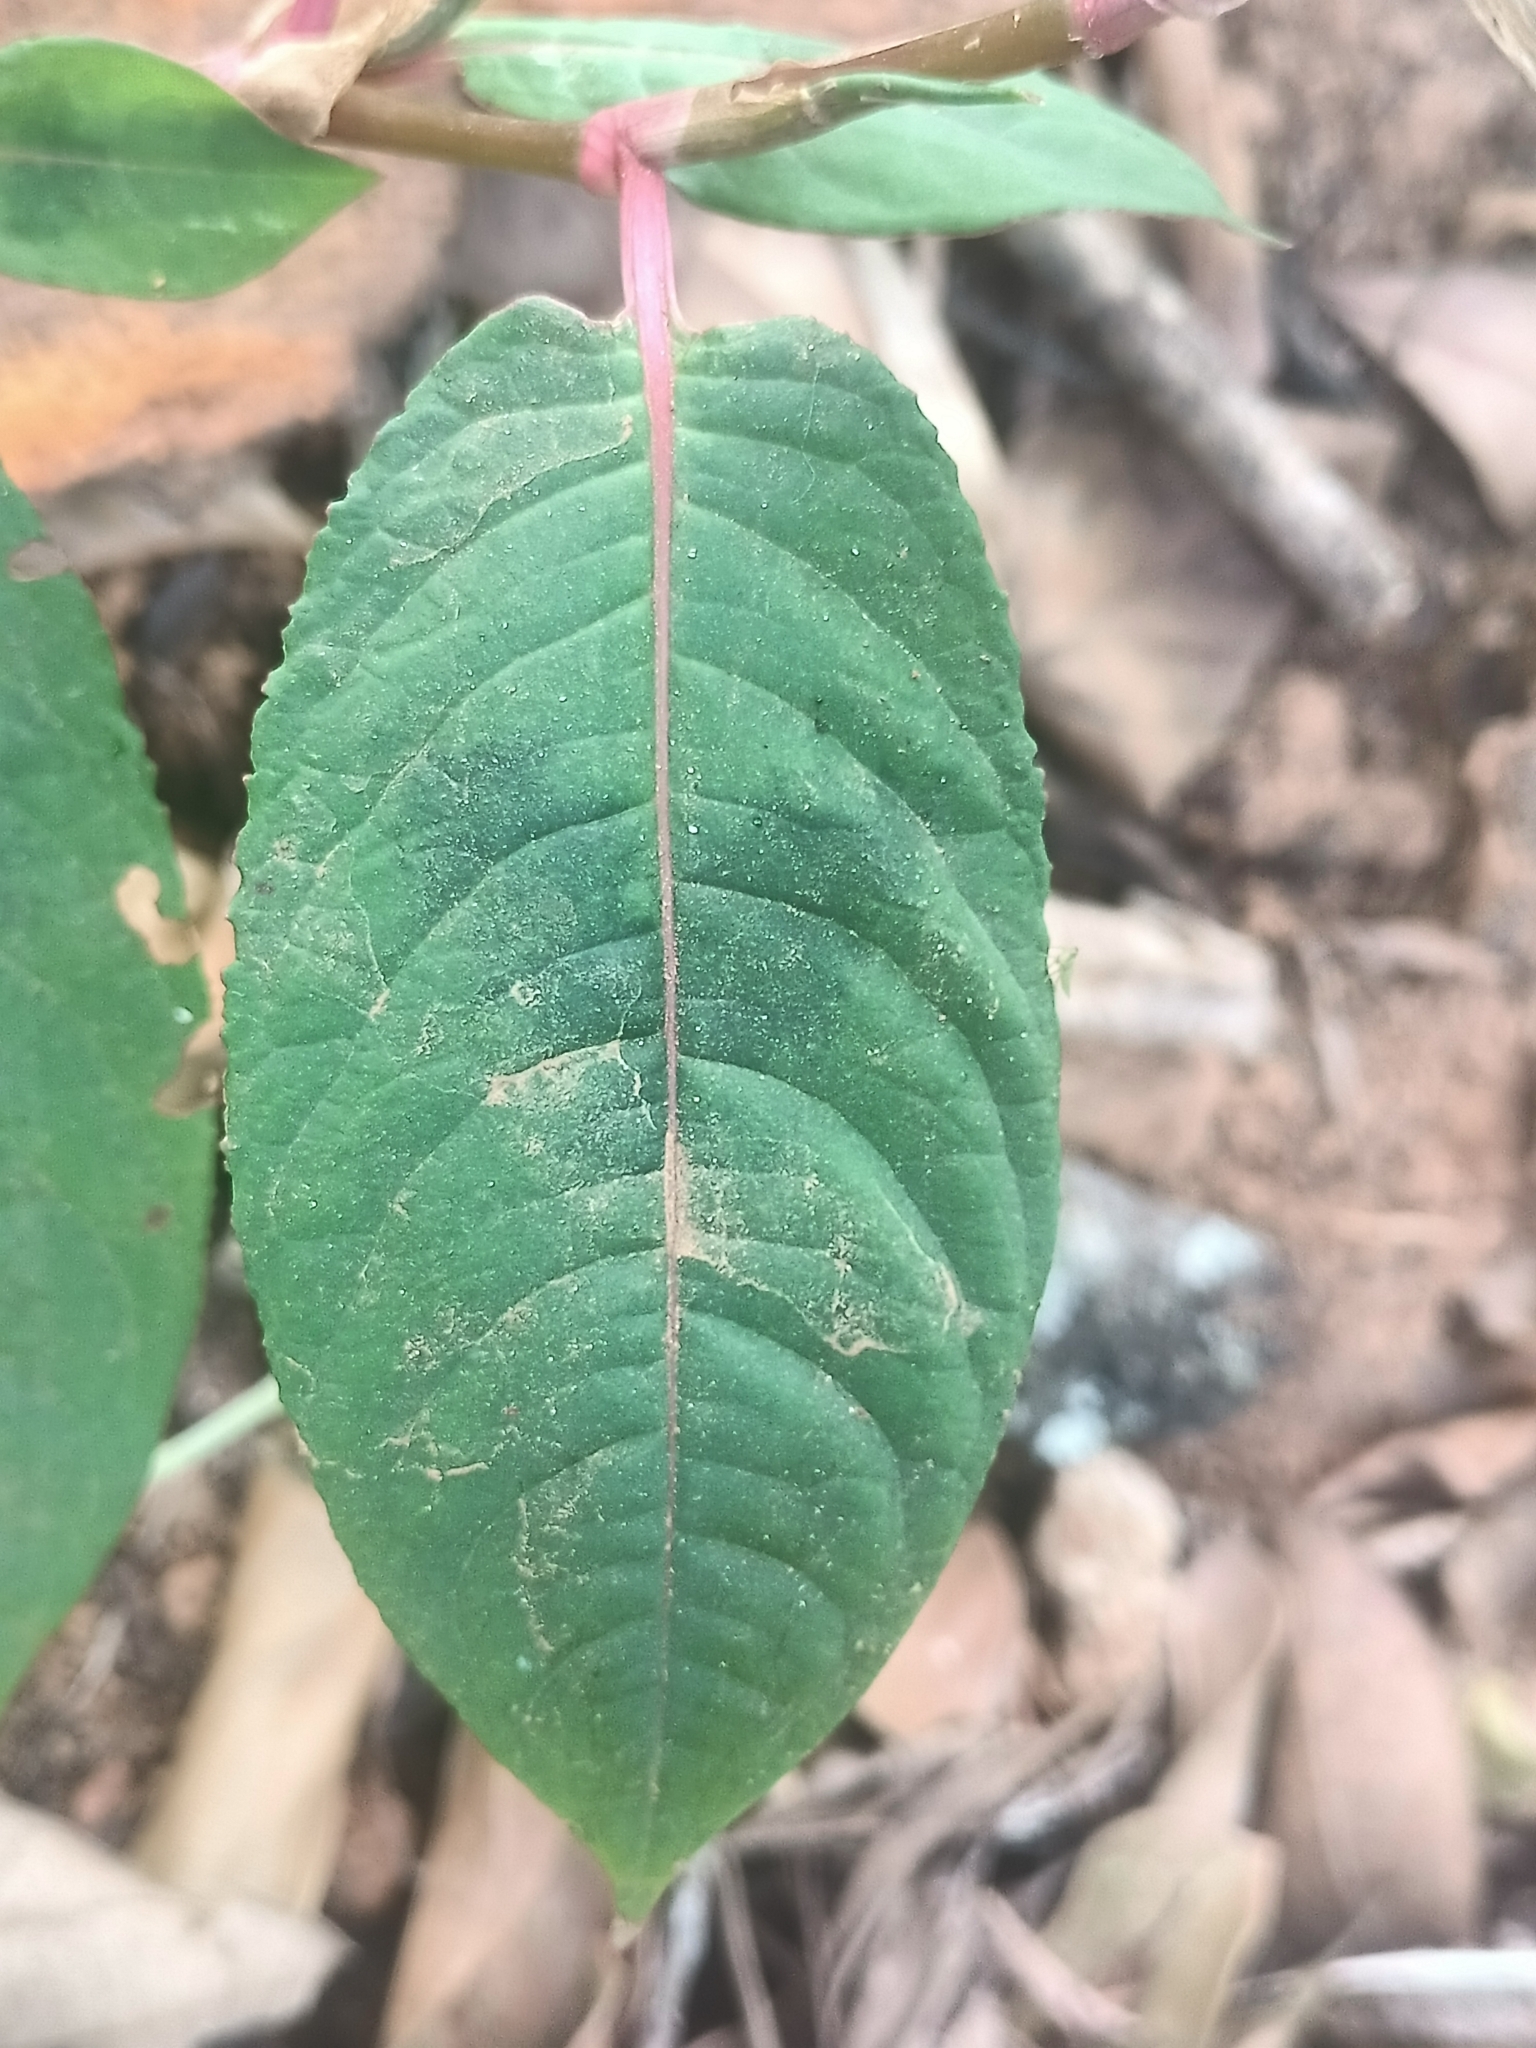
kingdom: Plantae
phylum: Tracheophyta
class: Magnoliopsida
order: Caryophyllales
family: Polygonaceae
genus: Persicaria
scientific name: Persicaria chinensis
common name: Chinese knotweed
